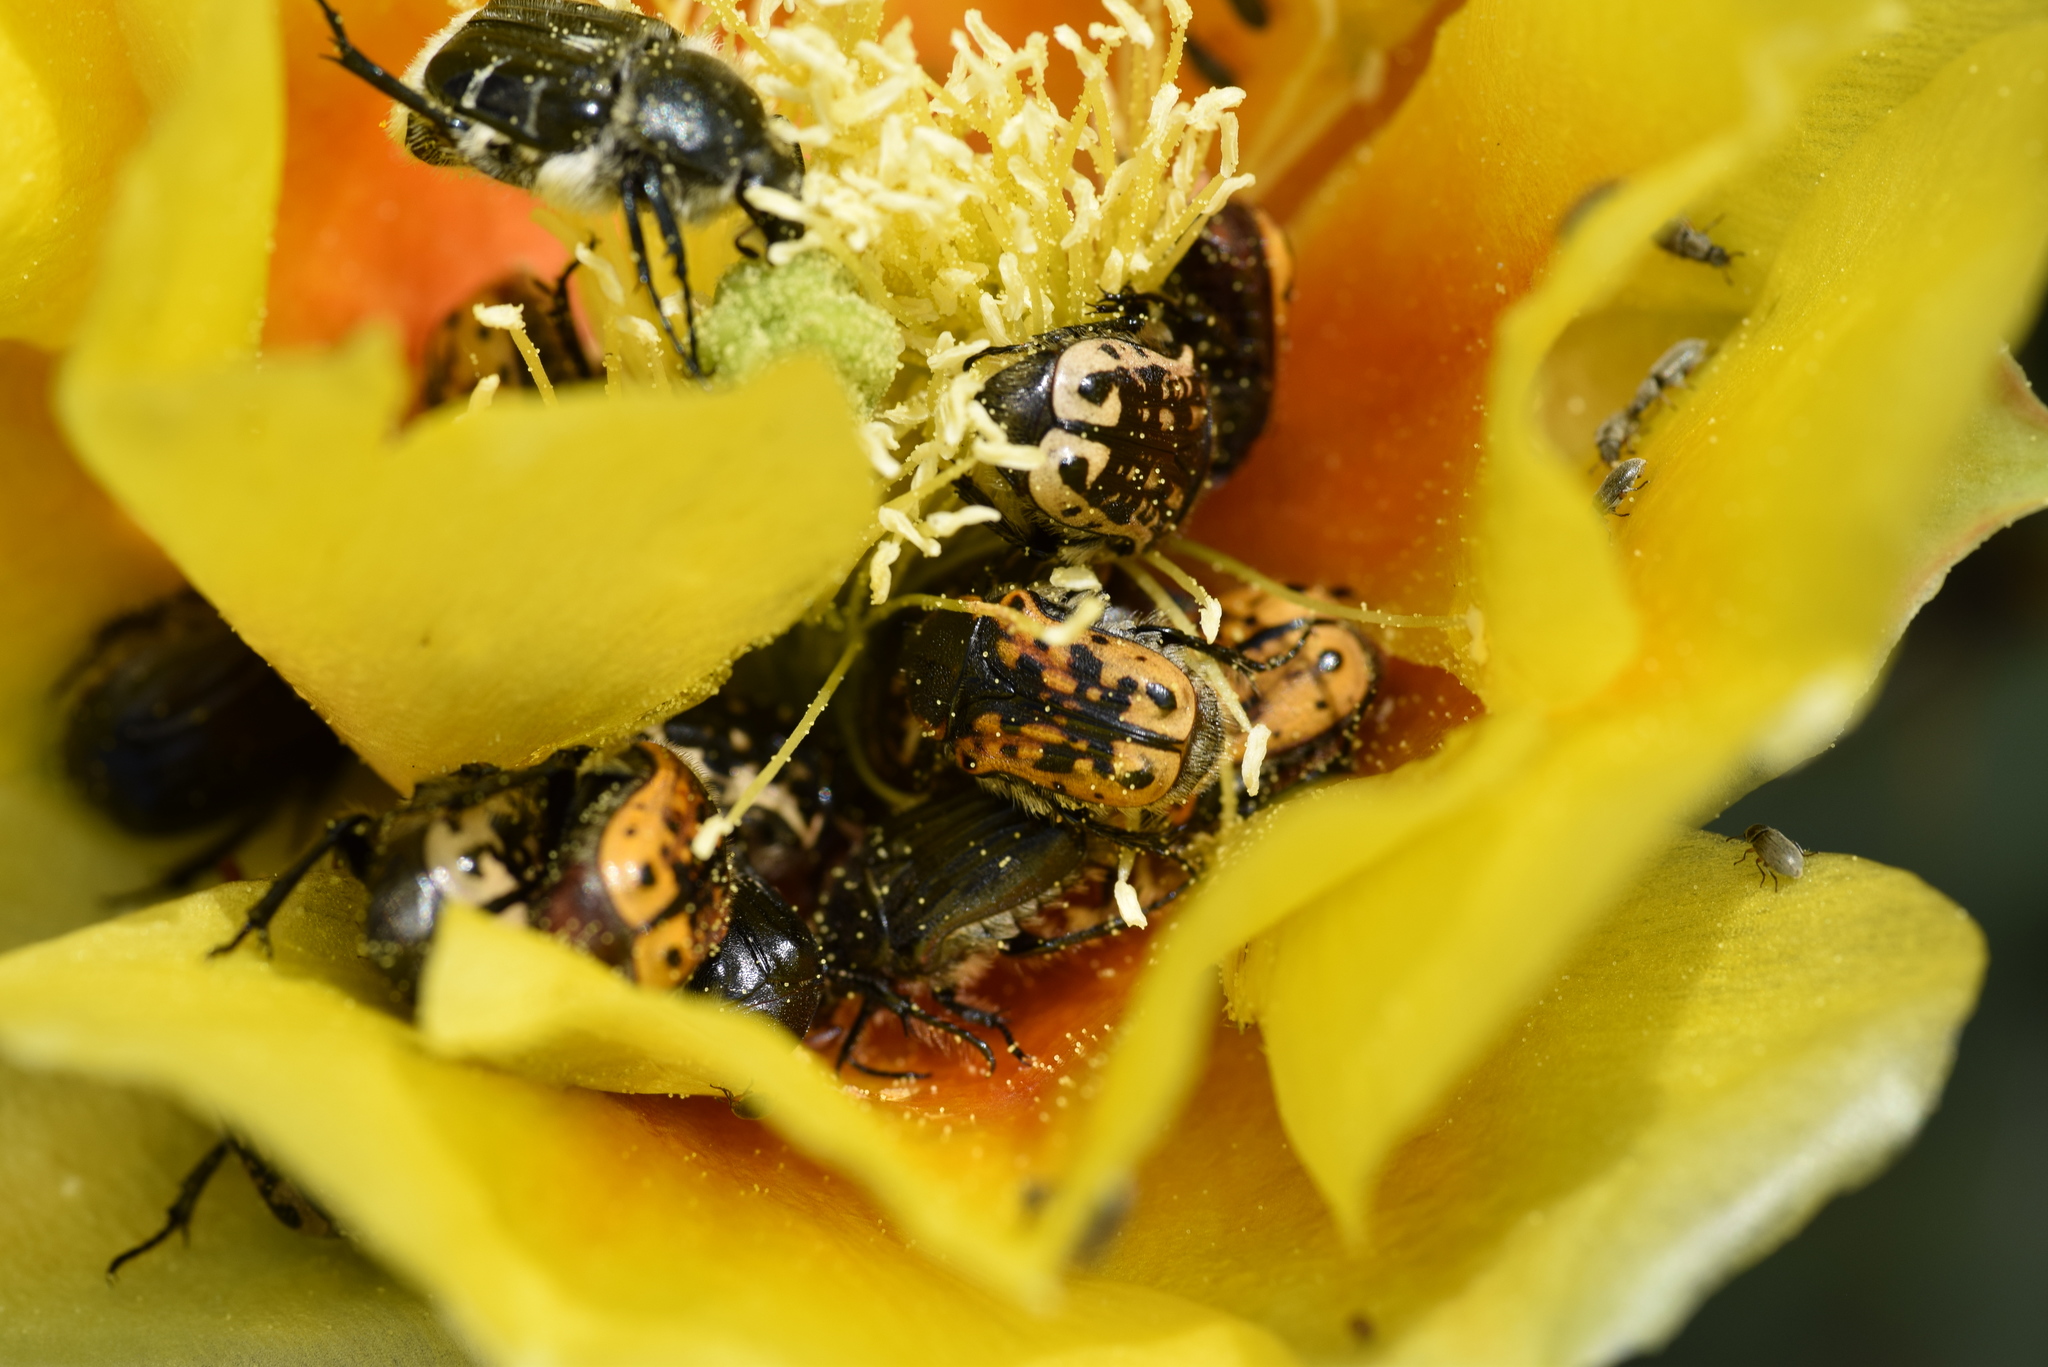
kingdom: Animalia
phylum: Arthropoda
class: Insecta
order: Coleoptera
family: Scarabaeidae
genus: Euphoria
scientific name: Euphoria kernii
